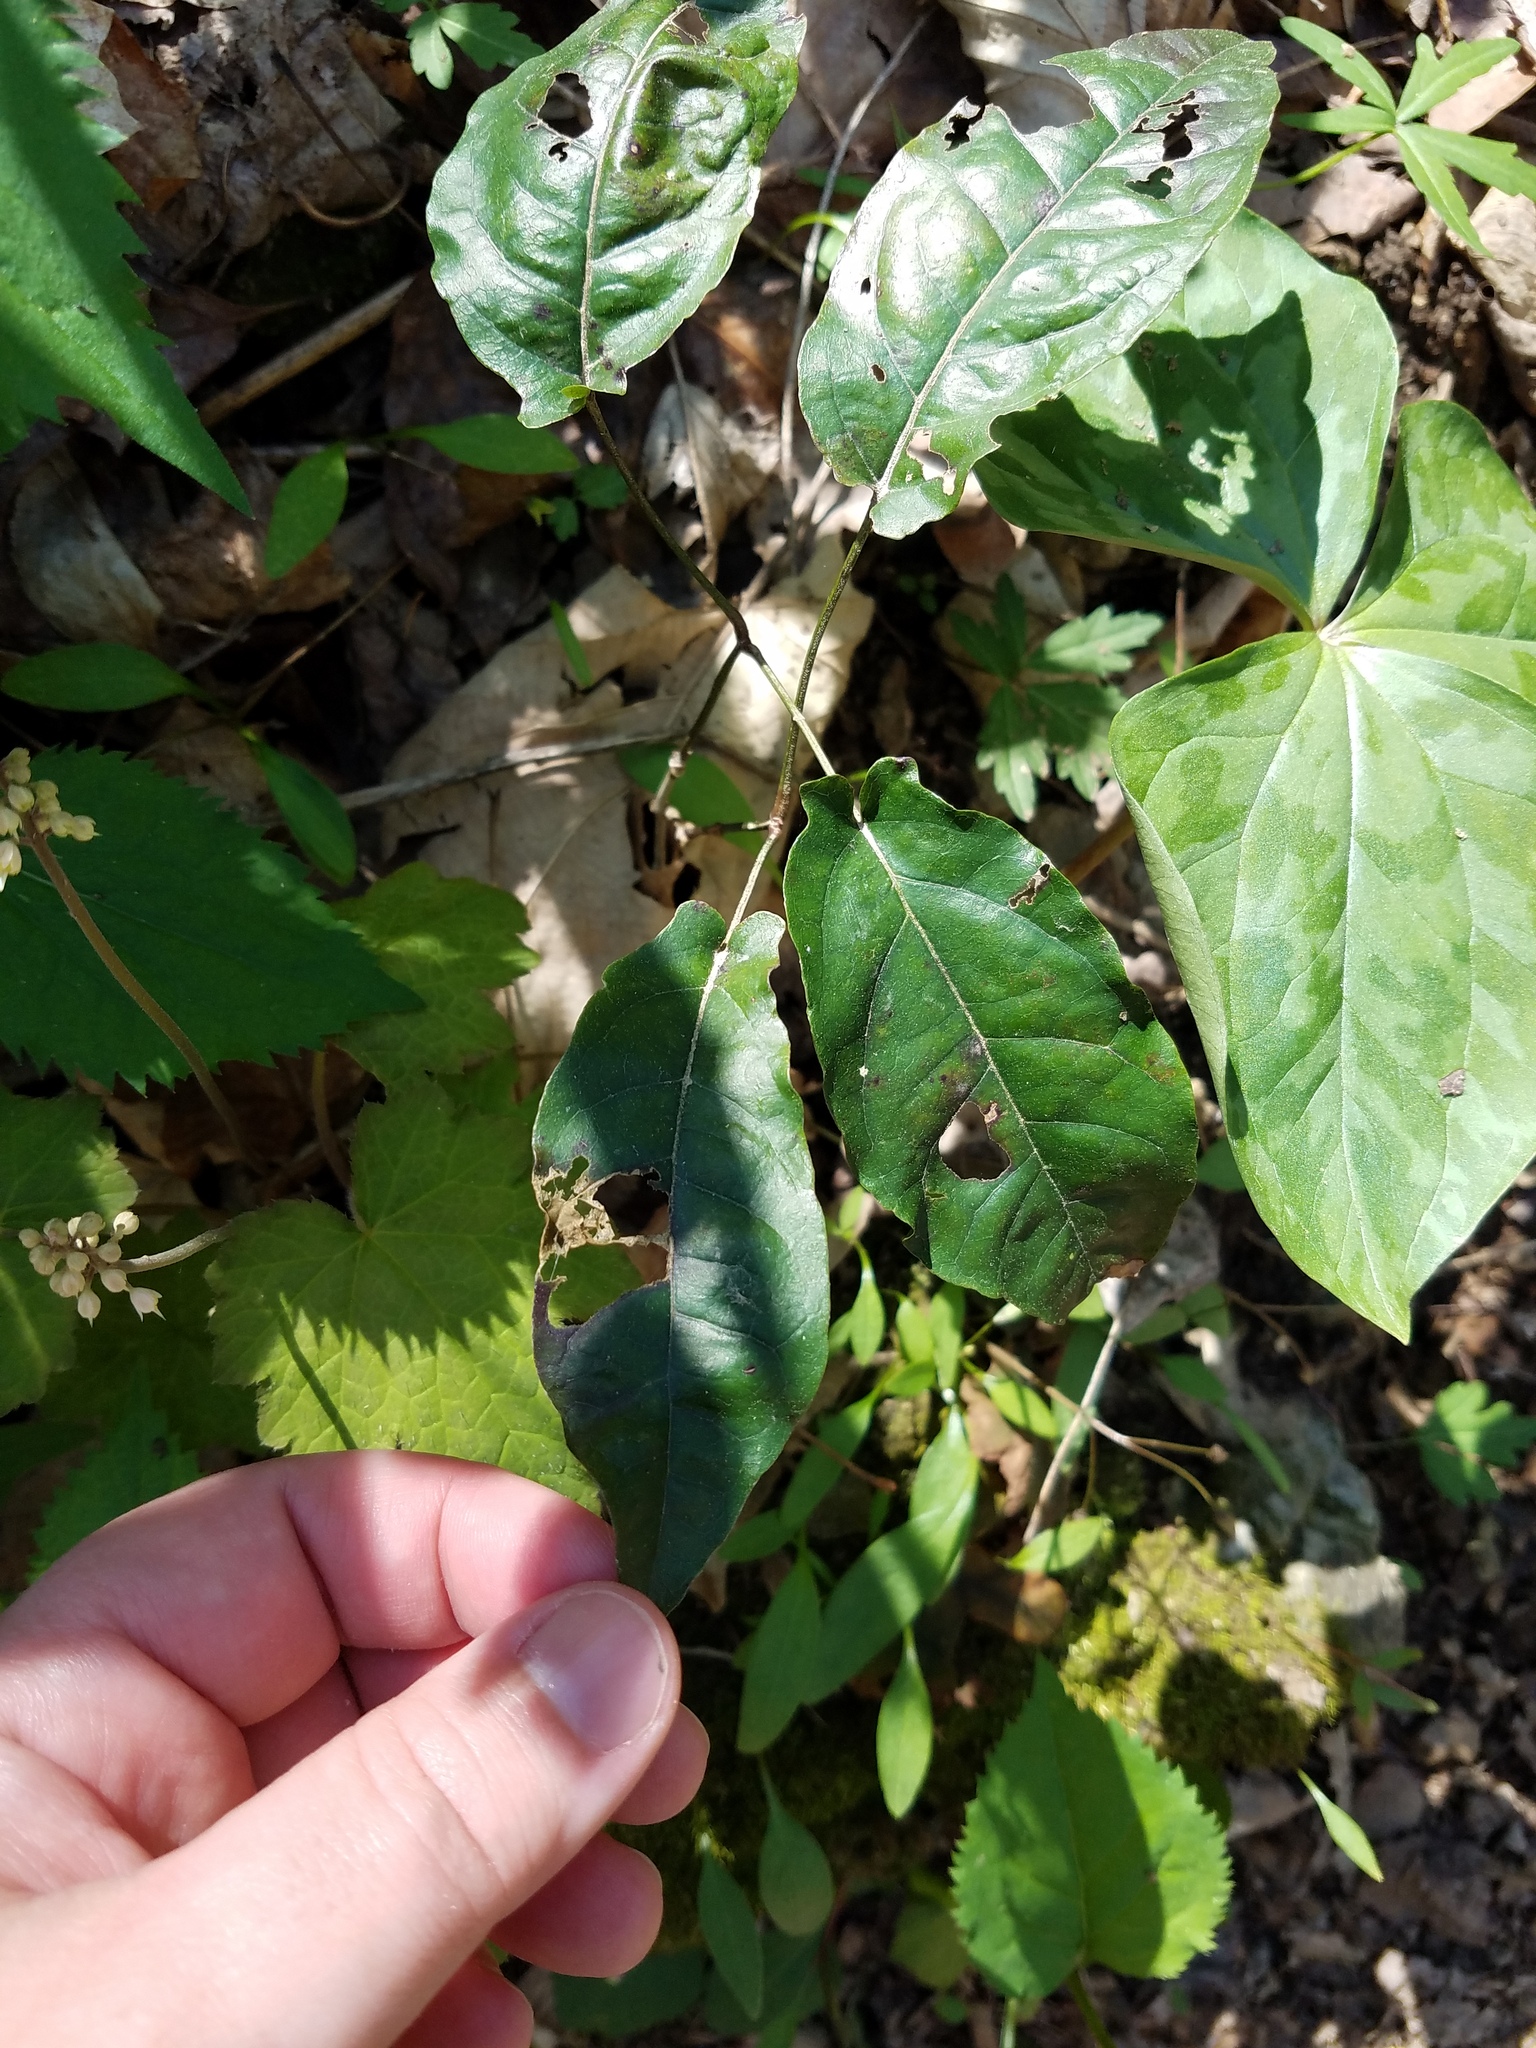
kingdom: Plantae
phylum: Tracheophyta
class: Magnoliopsida
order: Lamiales
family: Bignoniaceae
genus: Bignonia
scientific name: Bignonia capreolata
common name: Crossvine
